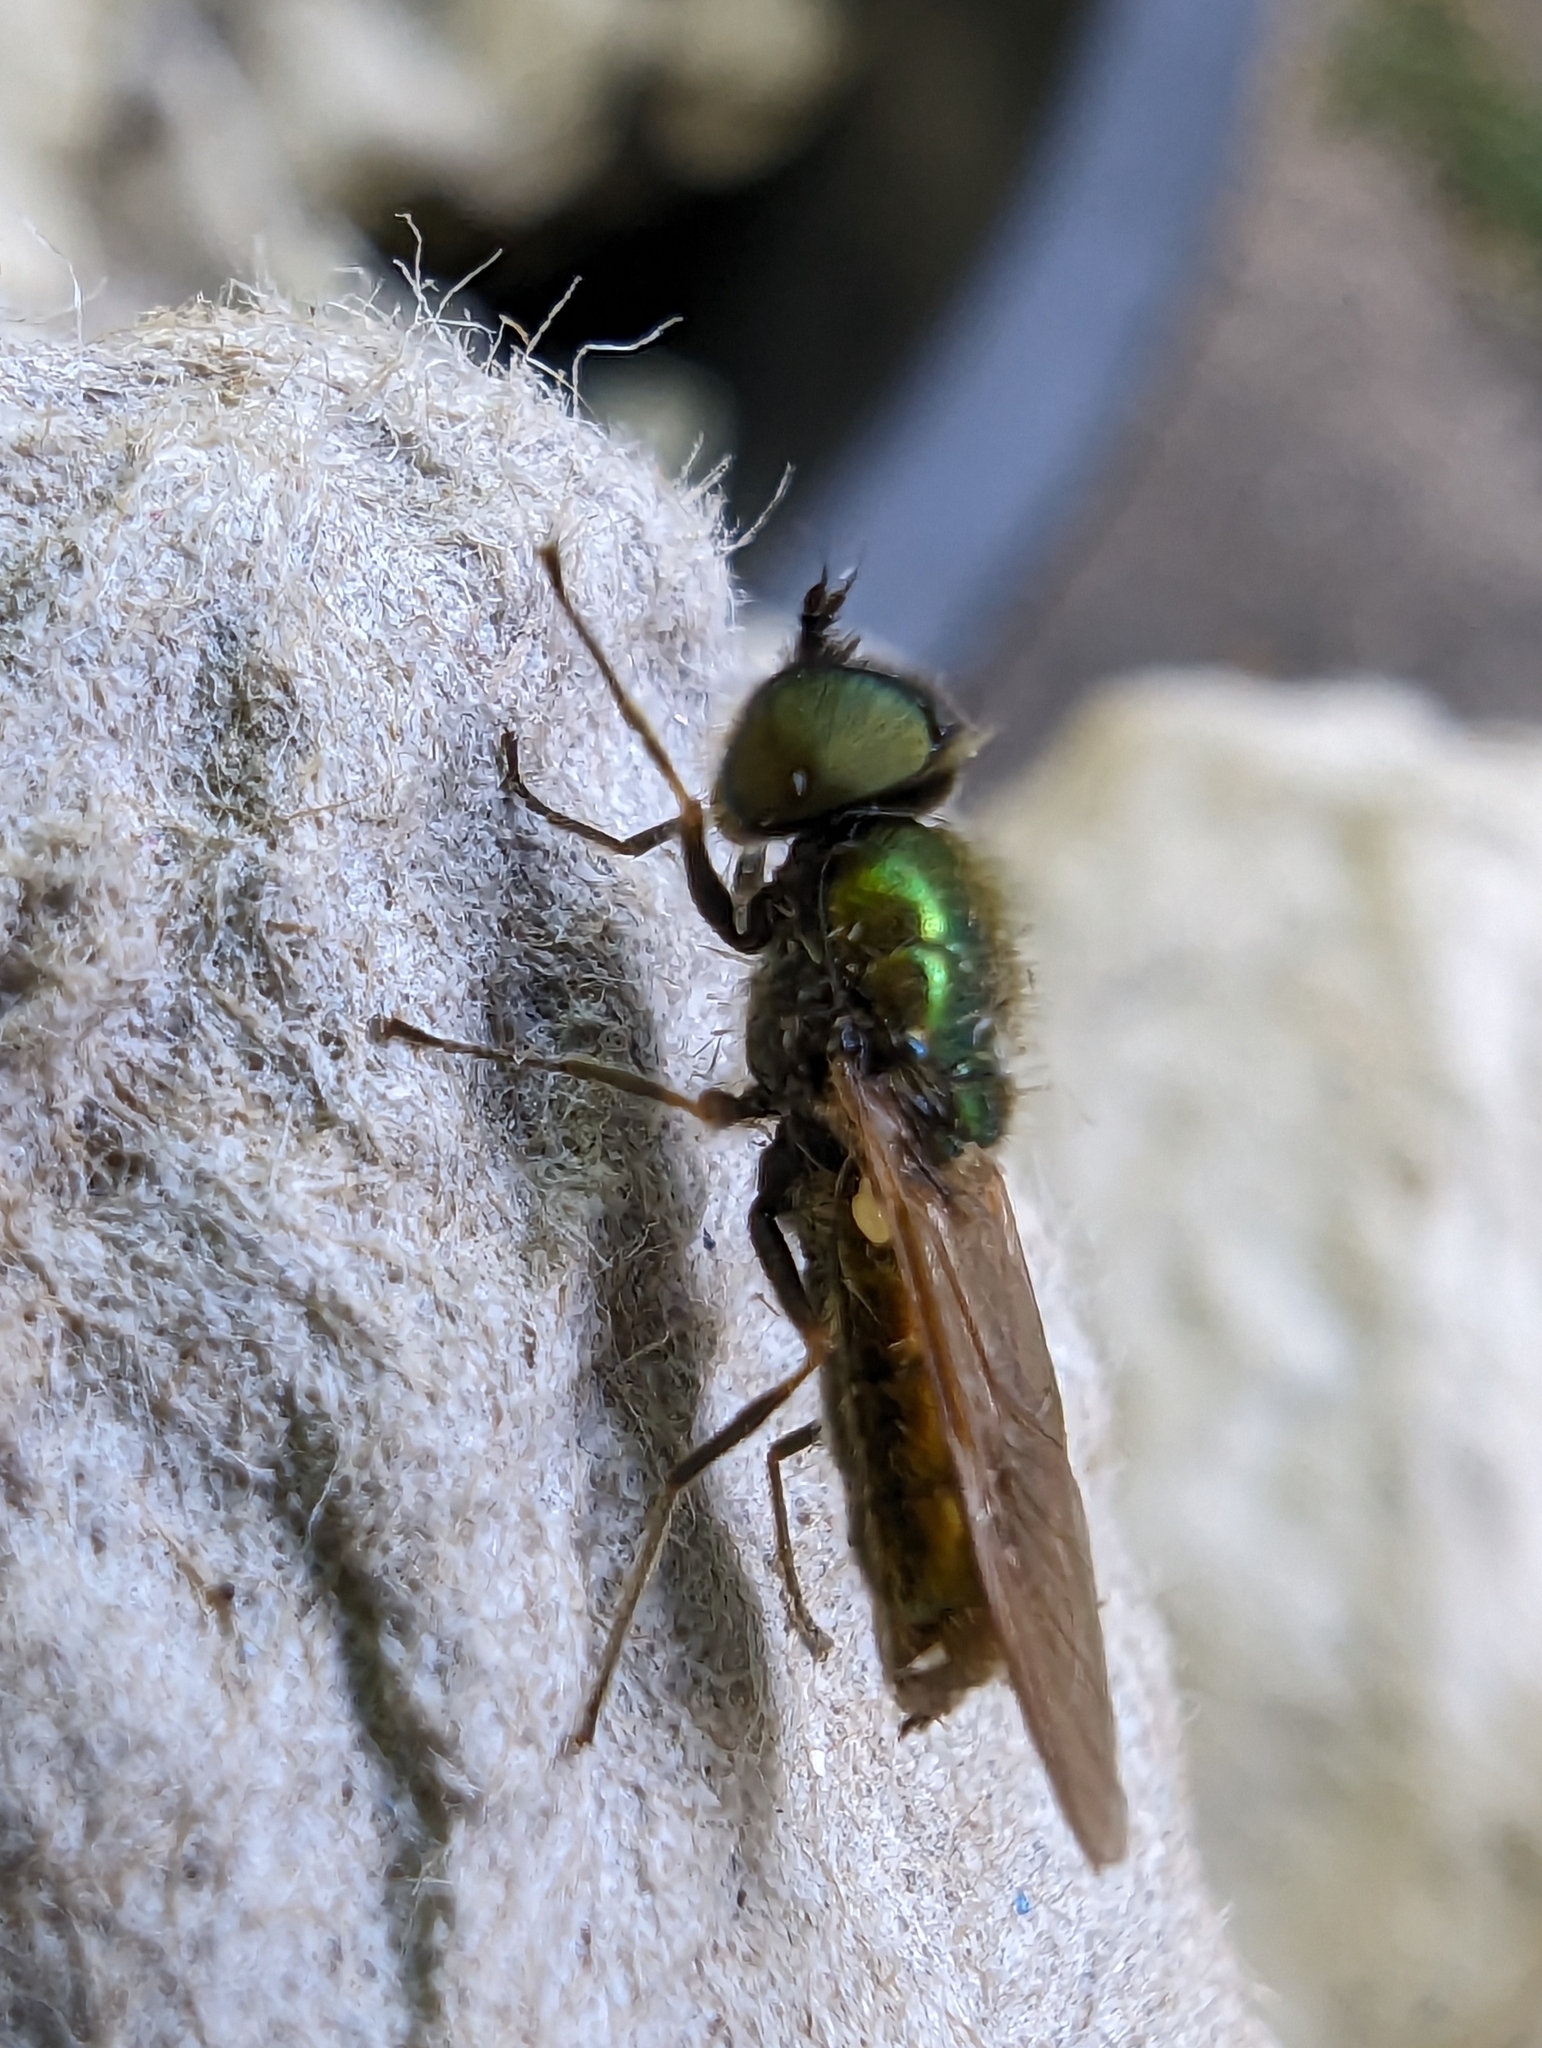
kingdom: Animalia
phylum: Arthropoda
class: Insecta
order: Diptera
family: Stratiomyidae
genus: Chloromyia
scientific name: Chloromyia formosa
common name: Soldier fly
